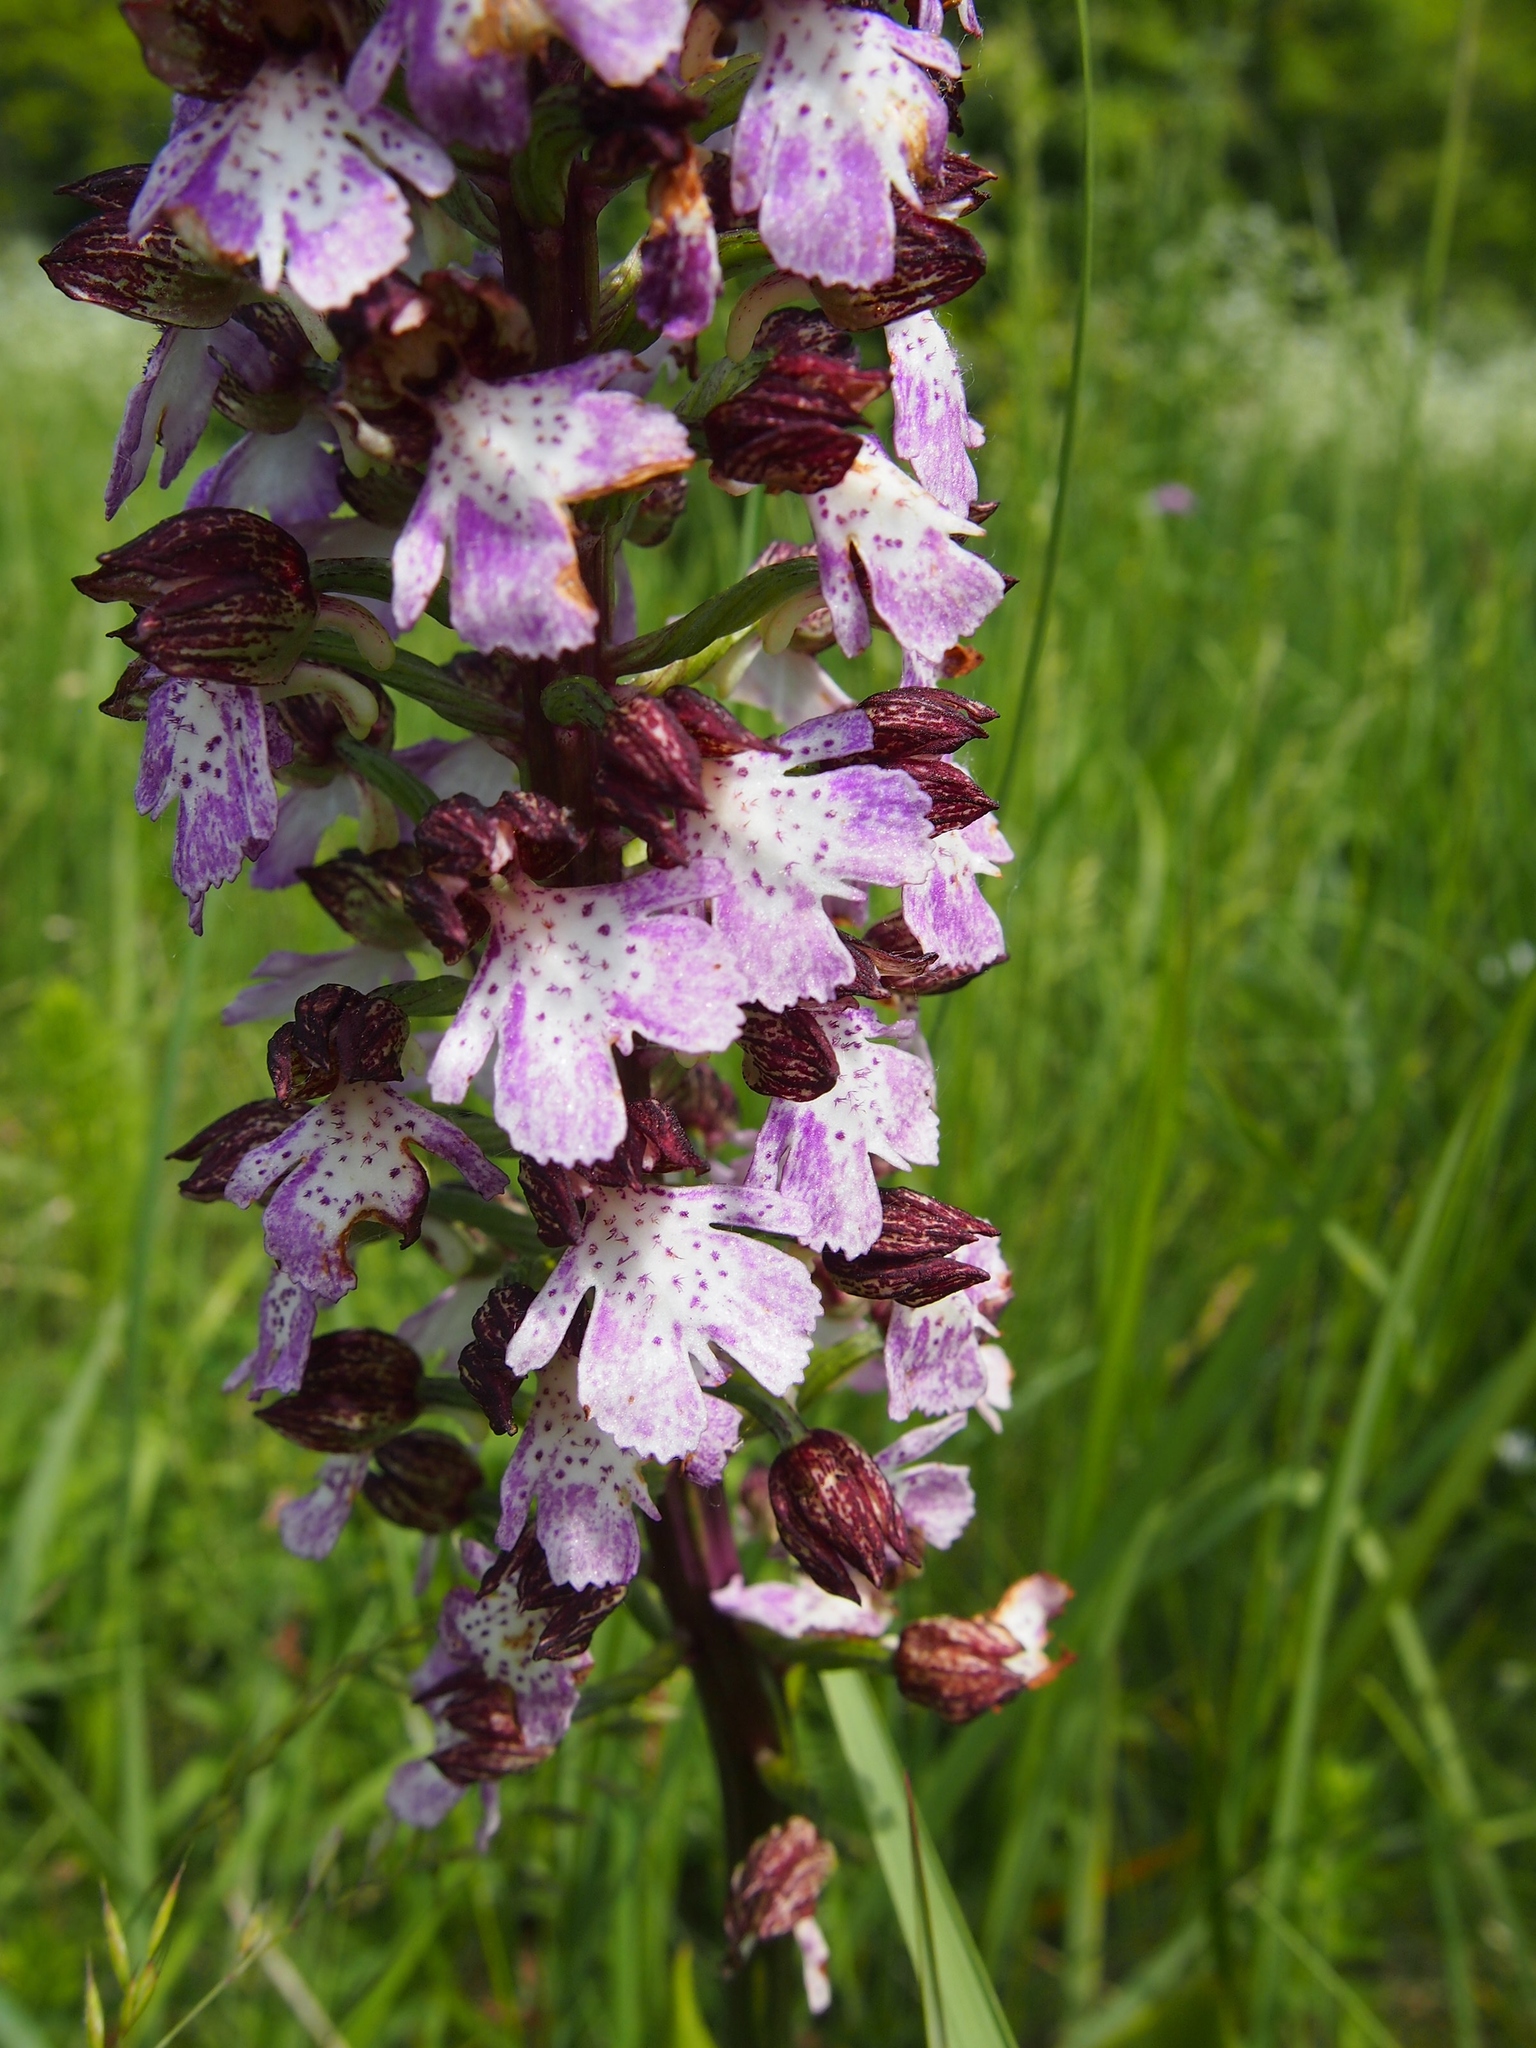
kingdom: Plantae
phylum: Tracheophyta
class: Liliopsida
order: Asparagales
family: Orchidaceae
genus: Orchis
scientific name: Orchis purpurea
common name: Lady orchid
